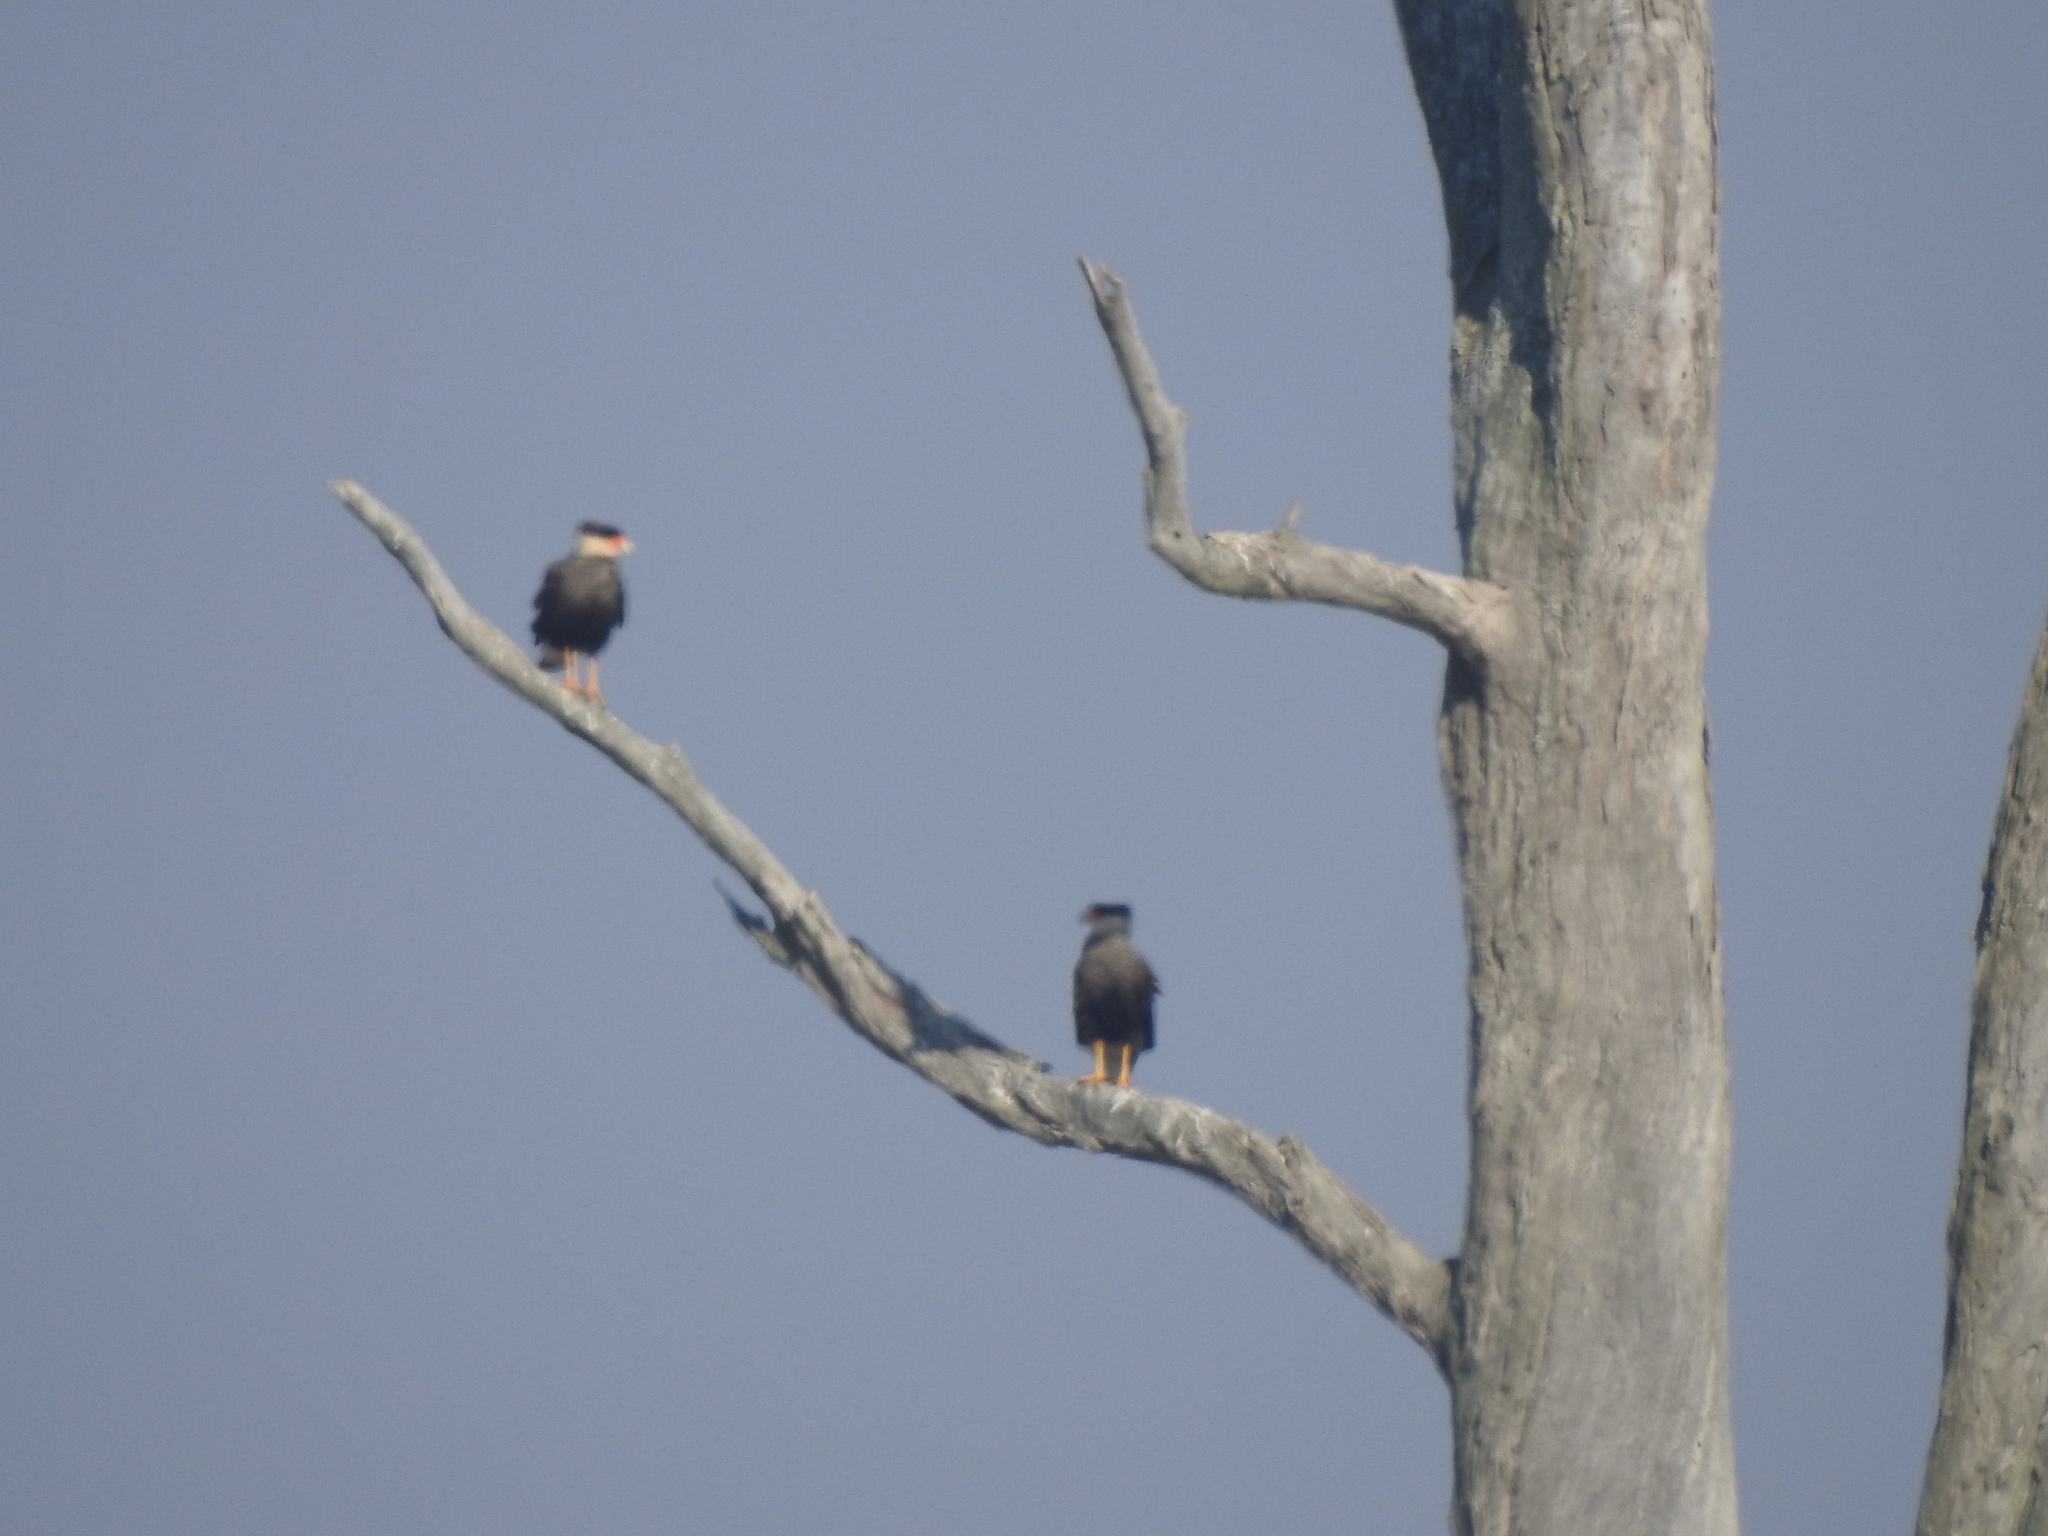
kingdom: Animalia
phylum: Chordata
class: Aves
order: Falconiformes
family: Falconidae
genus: Caracara
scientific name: Caracara plancus
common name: Southern caracara
